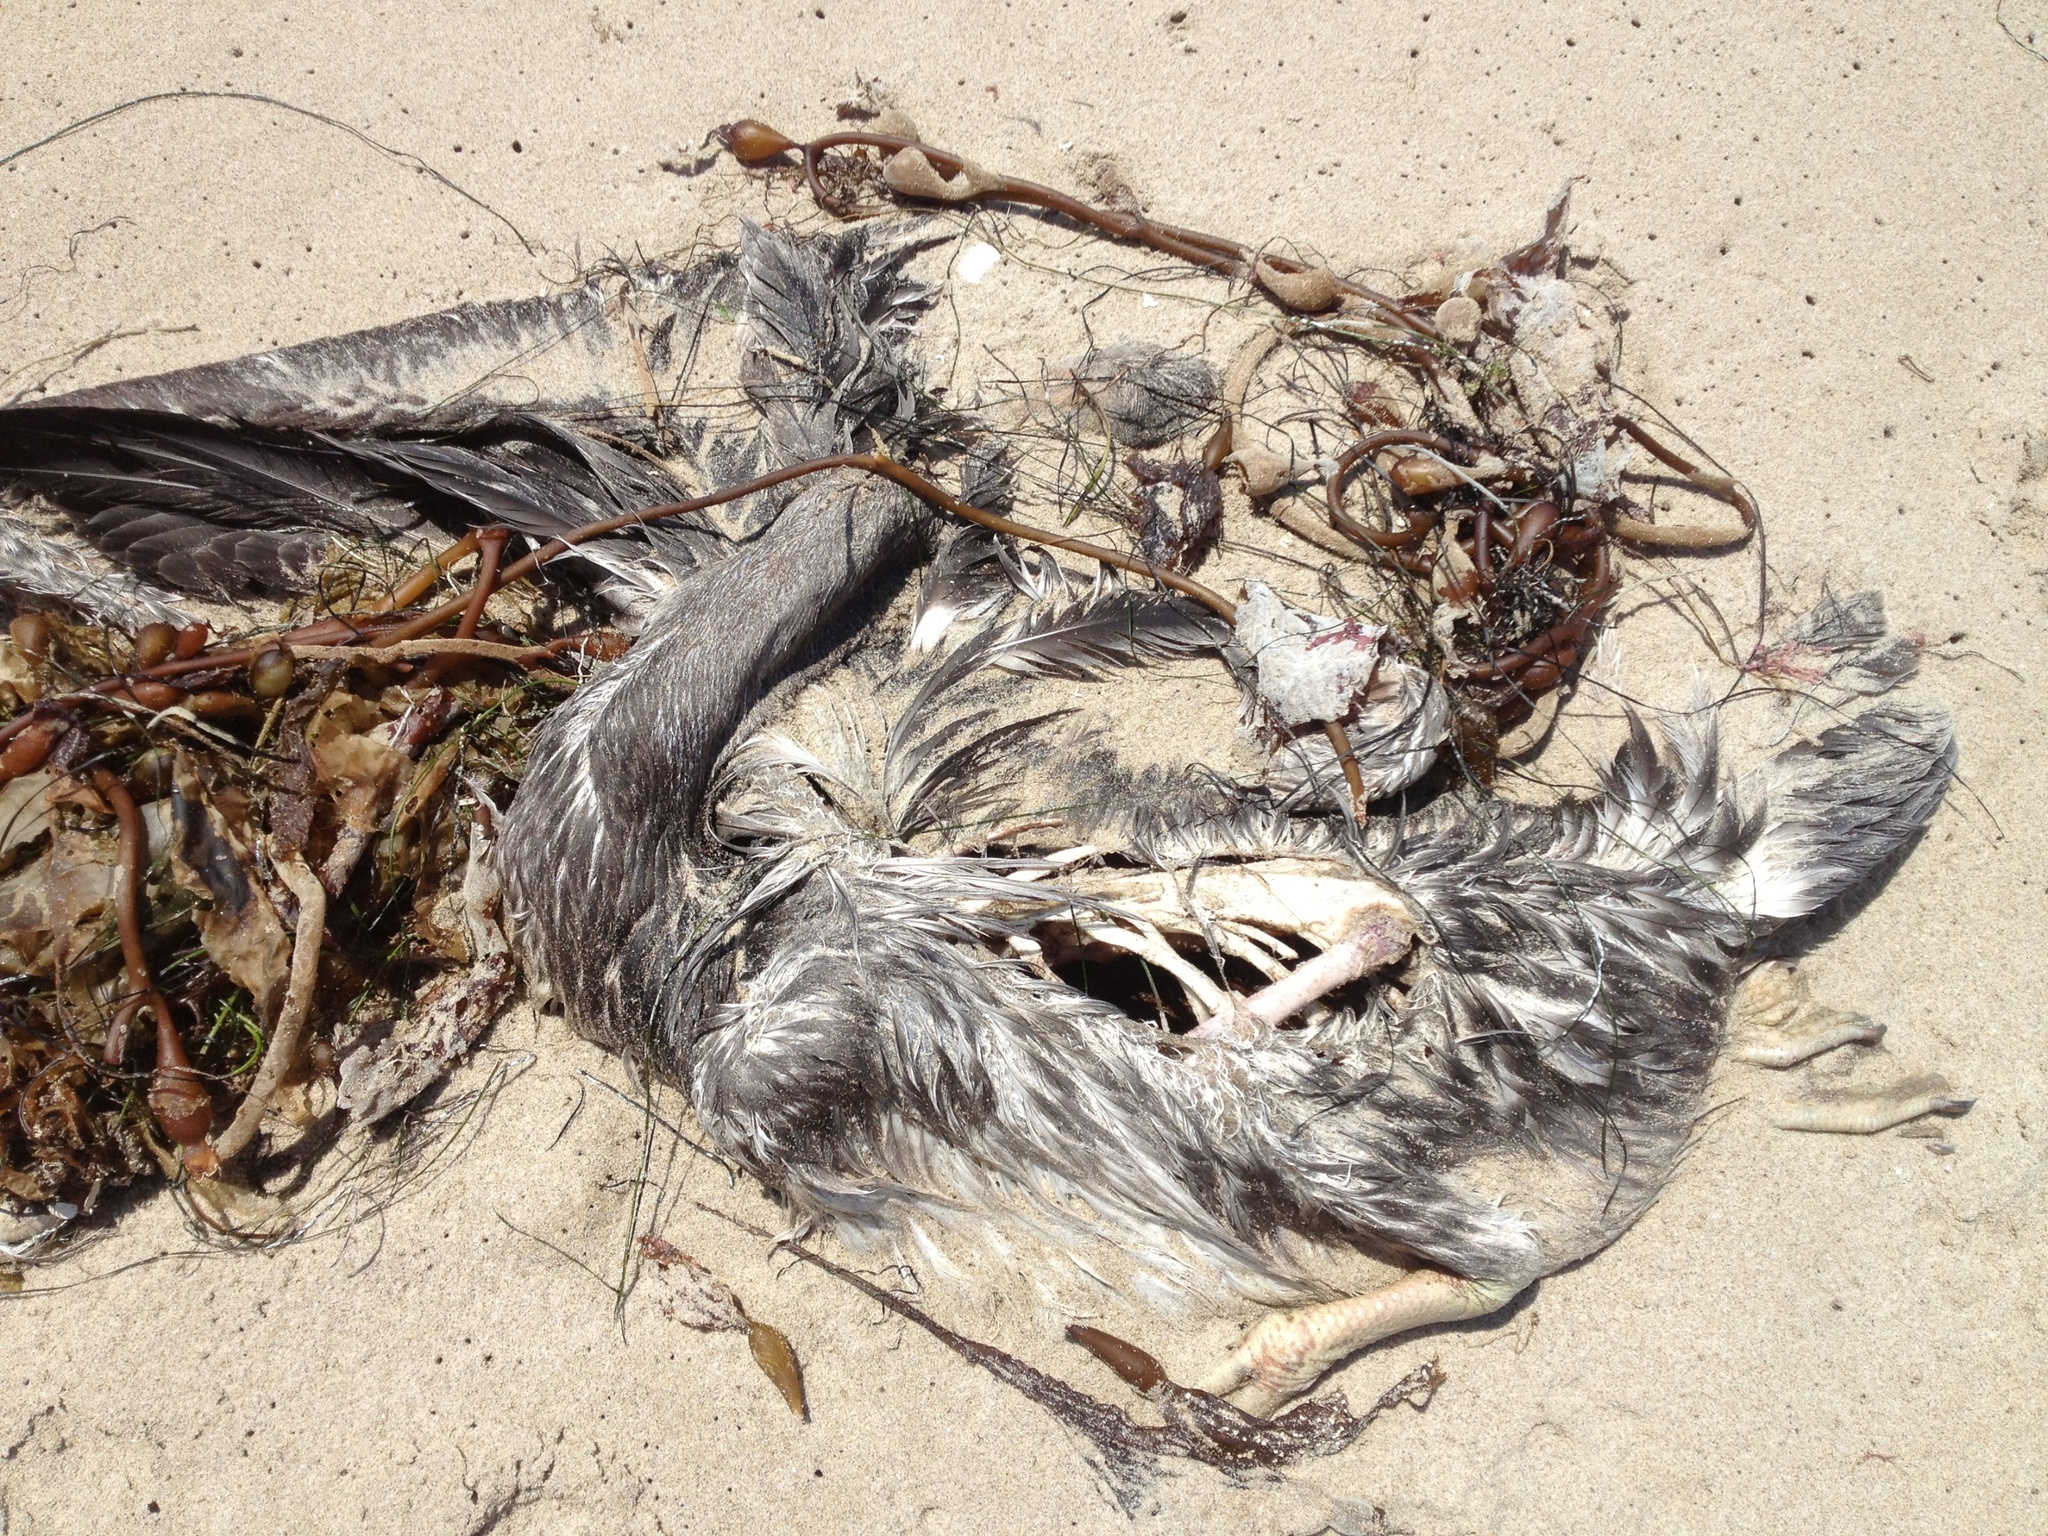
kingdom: Animalia
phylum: Chordata
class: Aves
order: Pelecaniformes
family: Pelecanidae
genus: Pelecanus
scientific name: Pelecanus occidentalis
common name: Brown pelican
